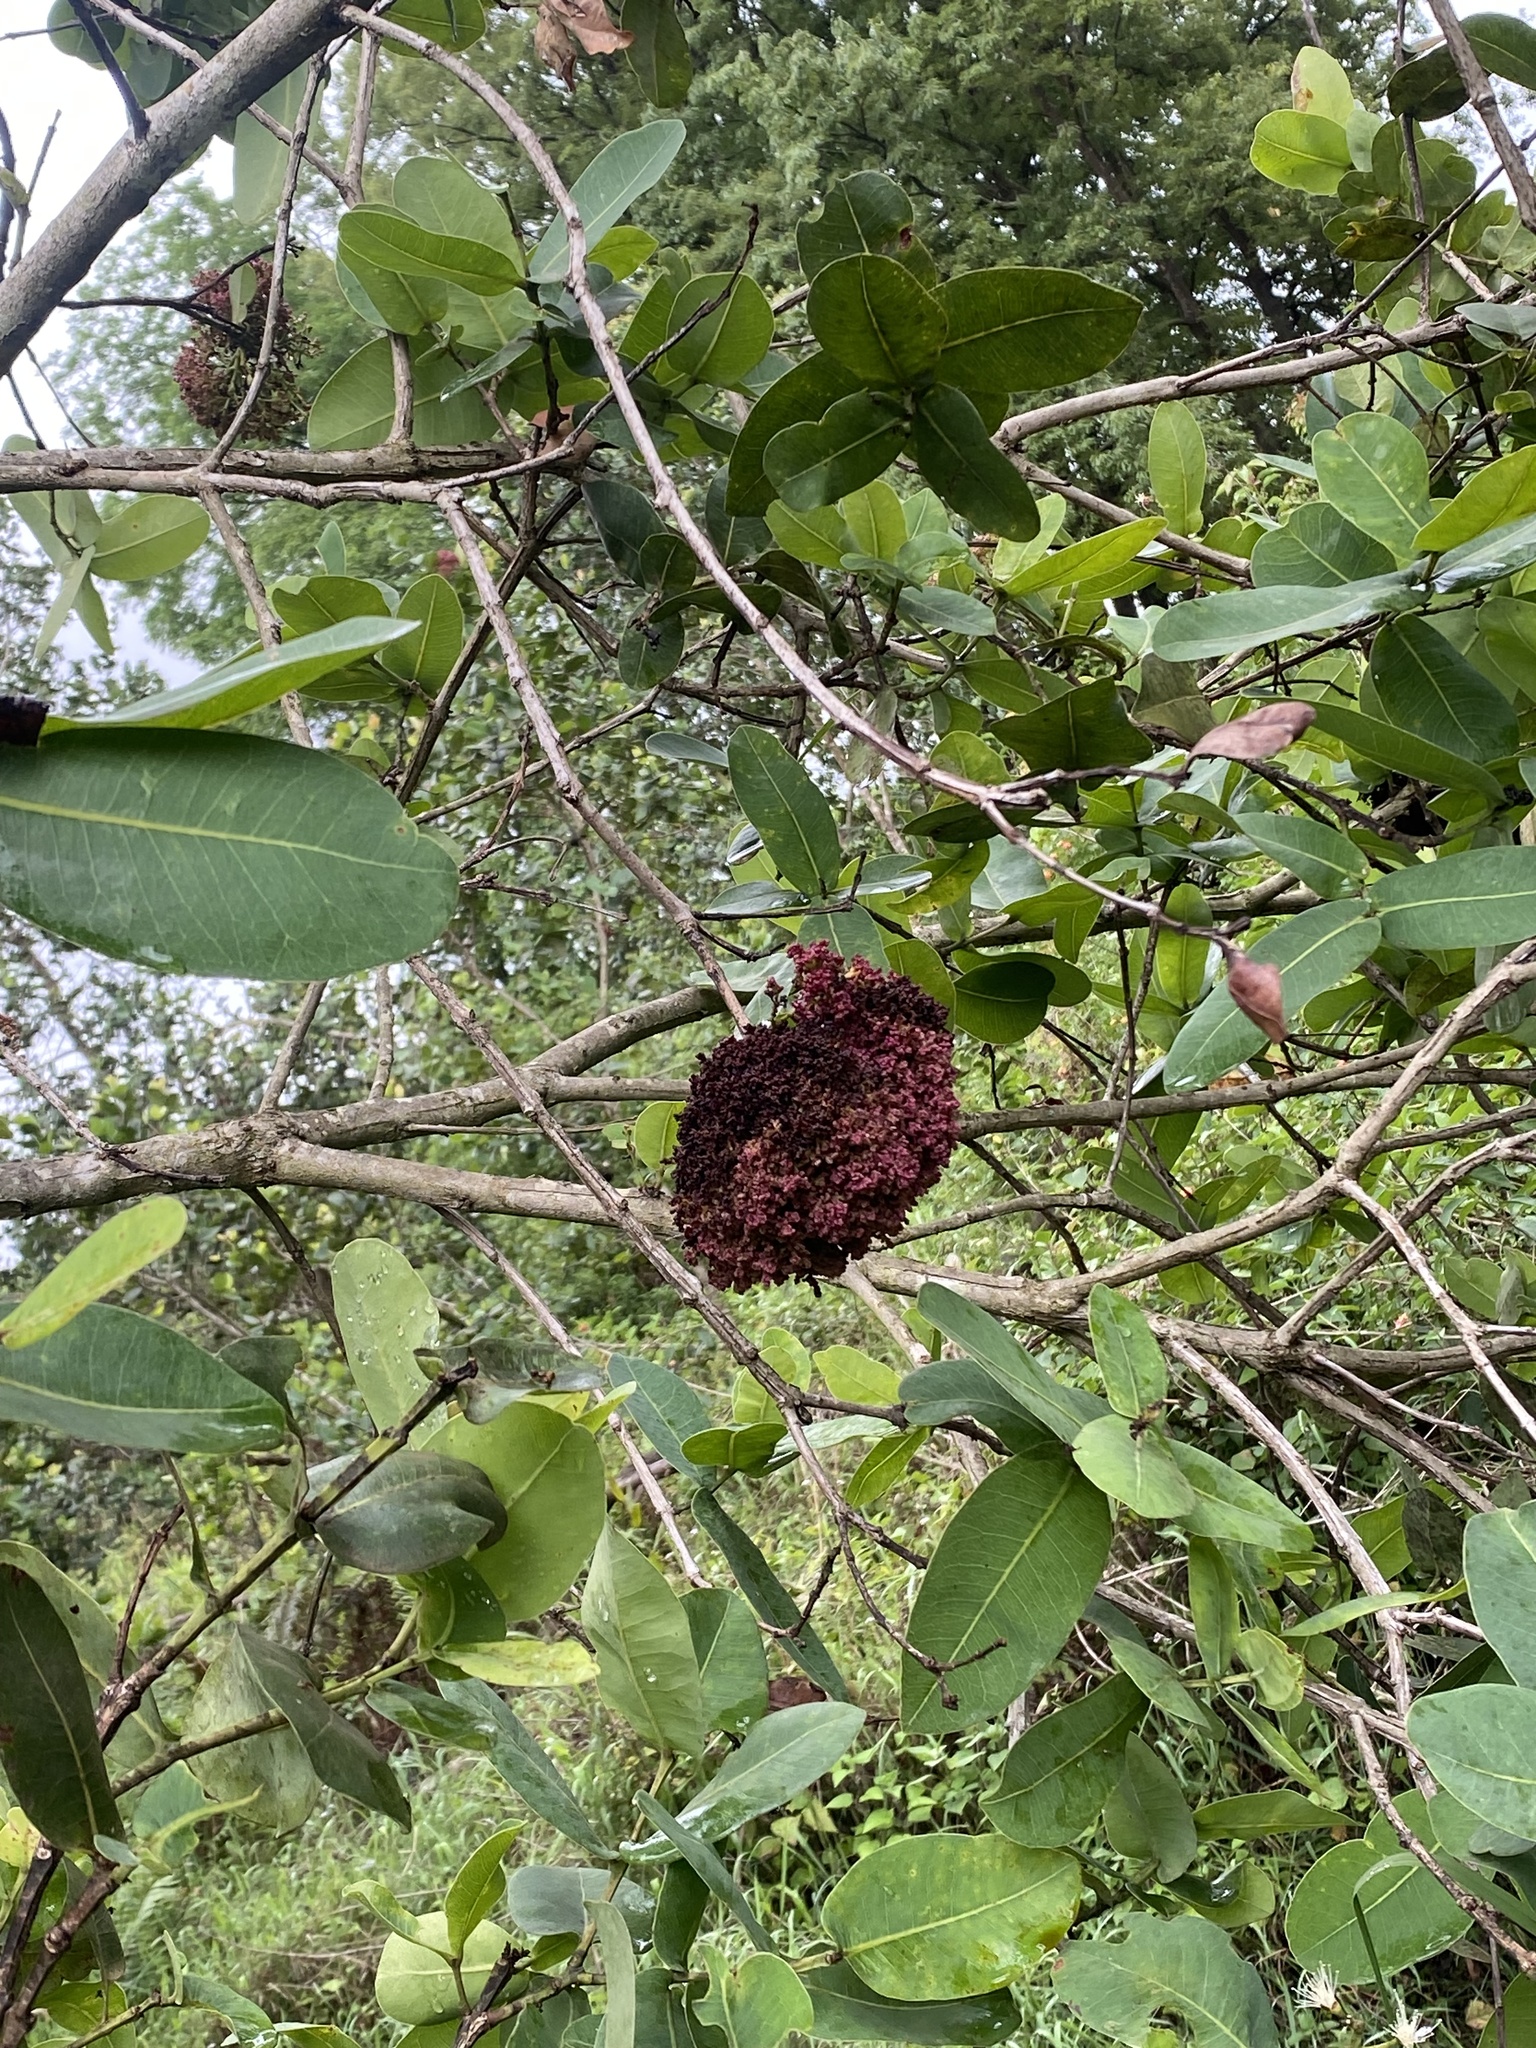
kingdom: Plantae
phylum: Tracheophyta
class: Magnoliopsida
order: Myrtales
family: Myrtaceae
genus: Syzygium
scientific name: Syzygium cordatum
